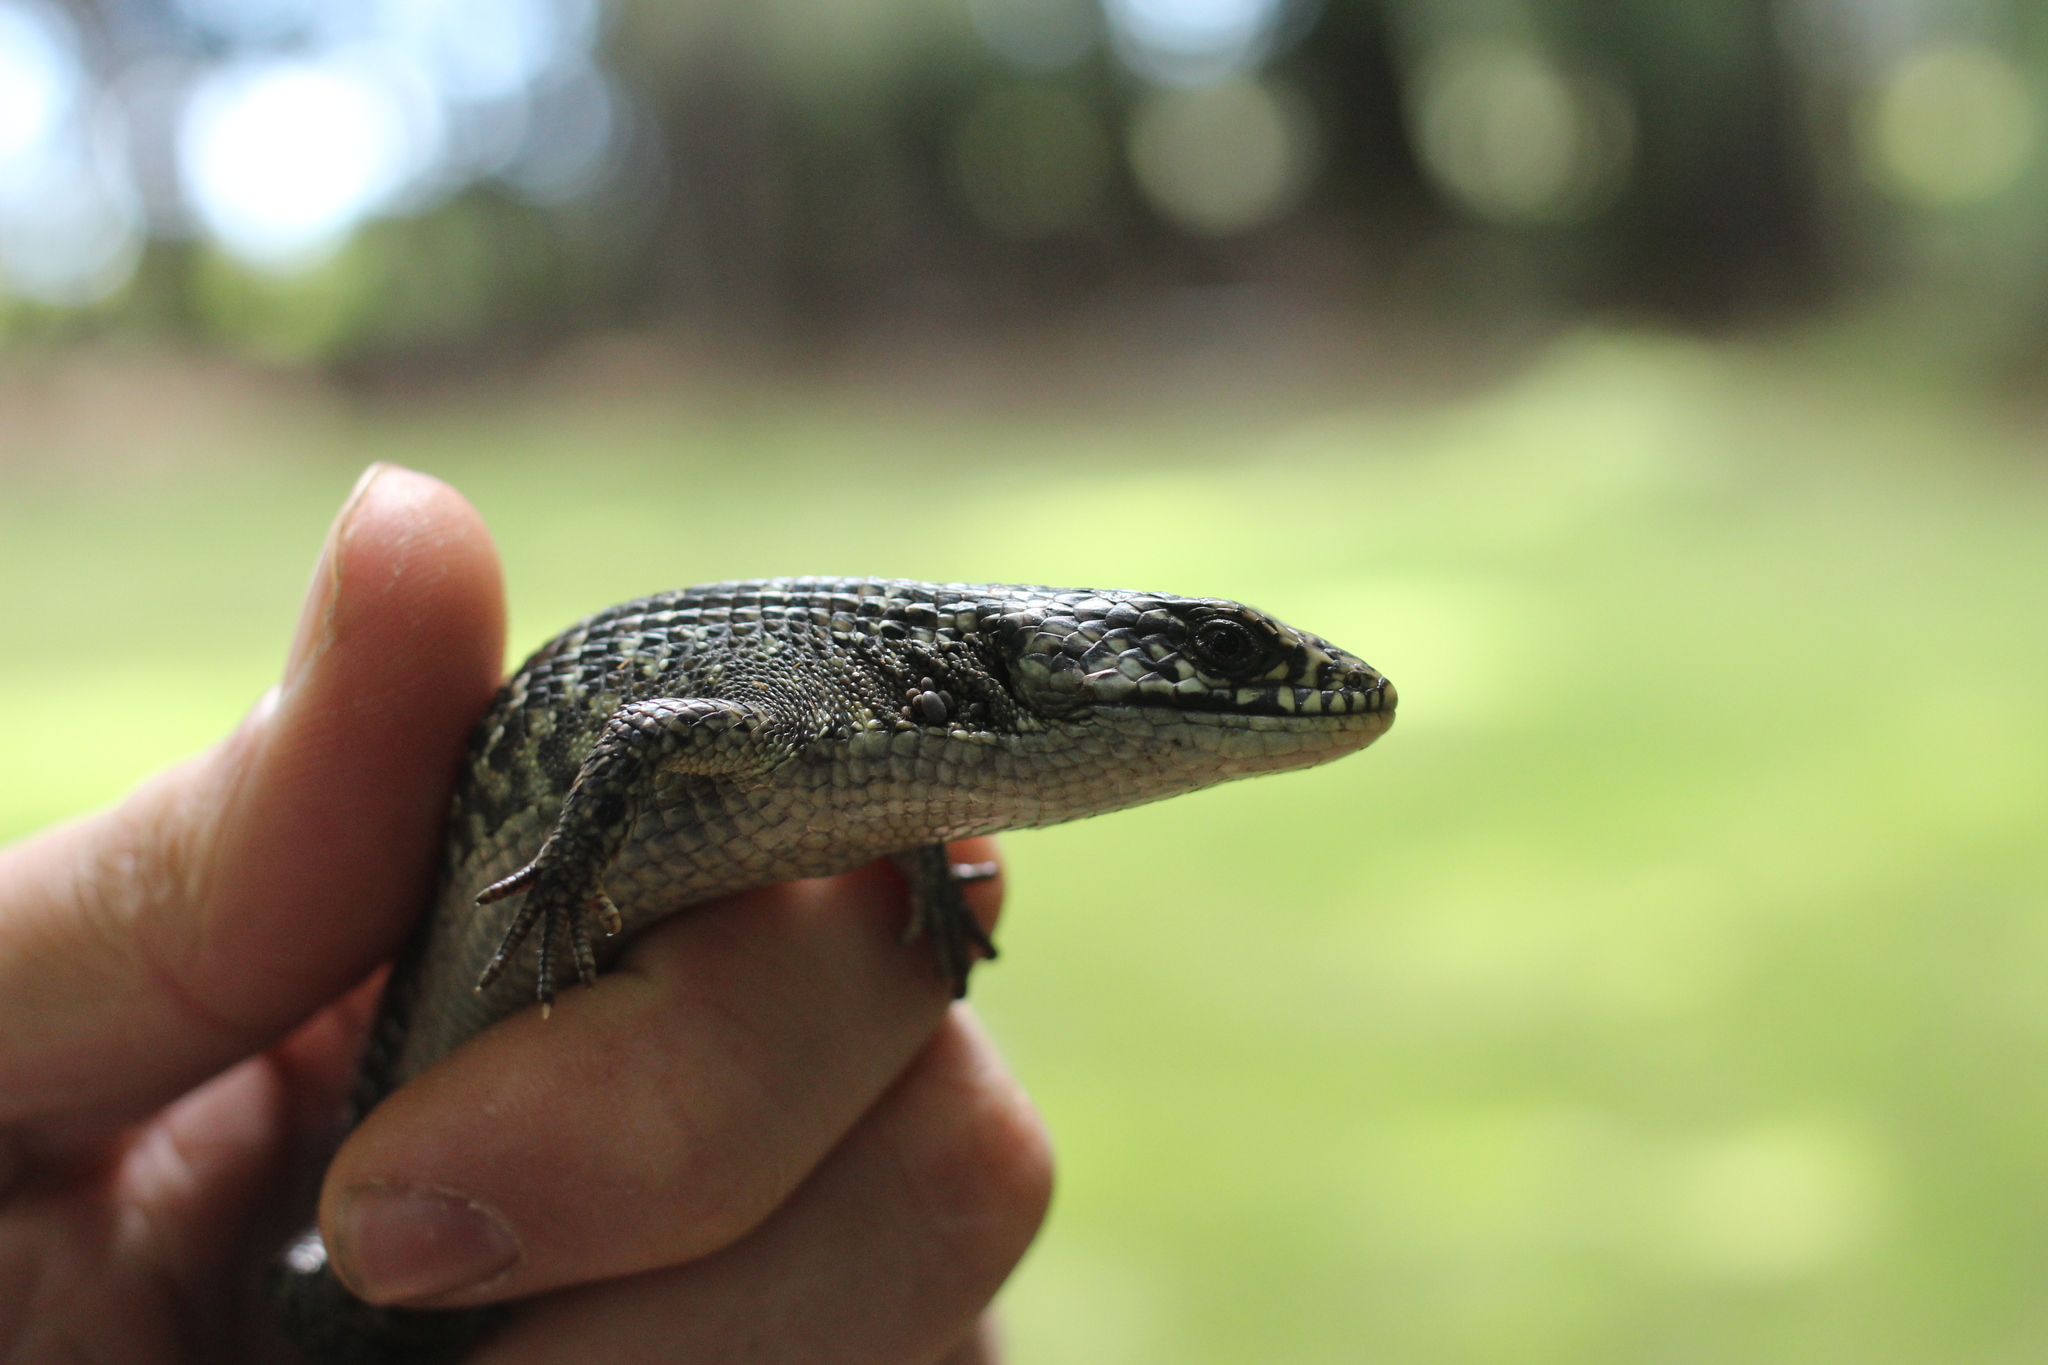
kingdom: Animalia
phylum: Chordata
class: Squamata
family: Anguidae
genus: Elgaria
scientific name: Elgaria coerulea
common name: Northern alligator lizard
